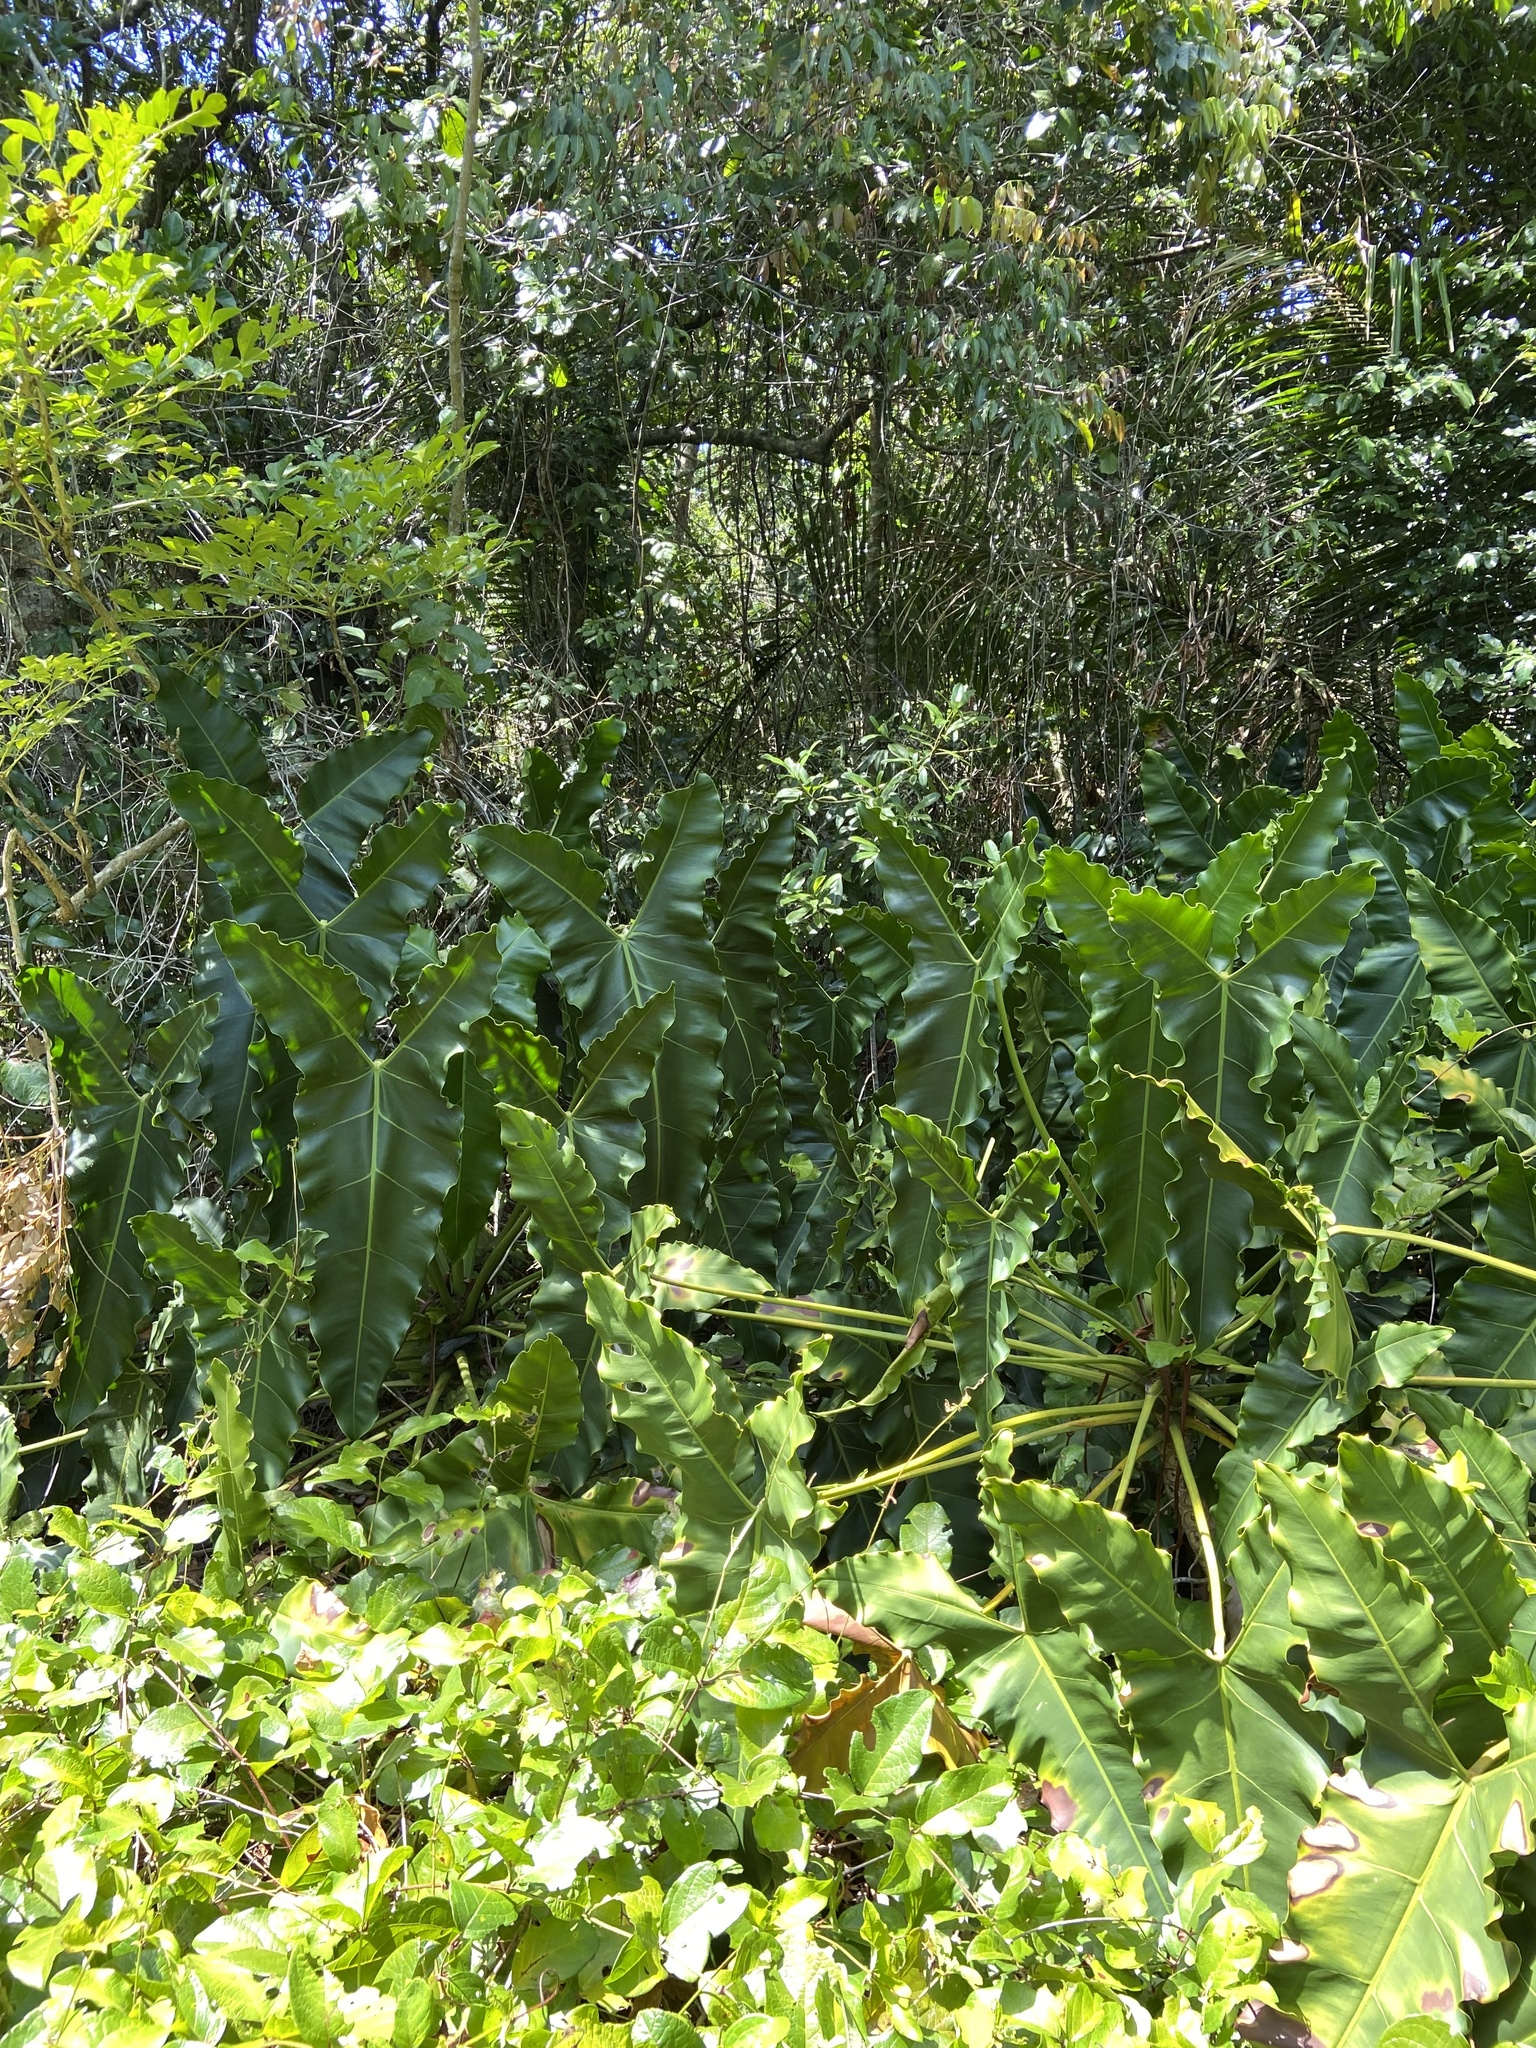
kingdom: Plantae
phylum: Tracheophyta
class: Liliopsida
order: Alismatales
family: Araceae
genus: Thaumatophyllum
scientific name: Thaumatophyllum stenolobum
